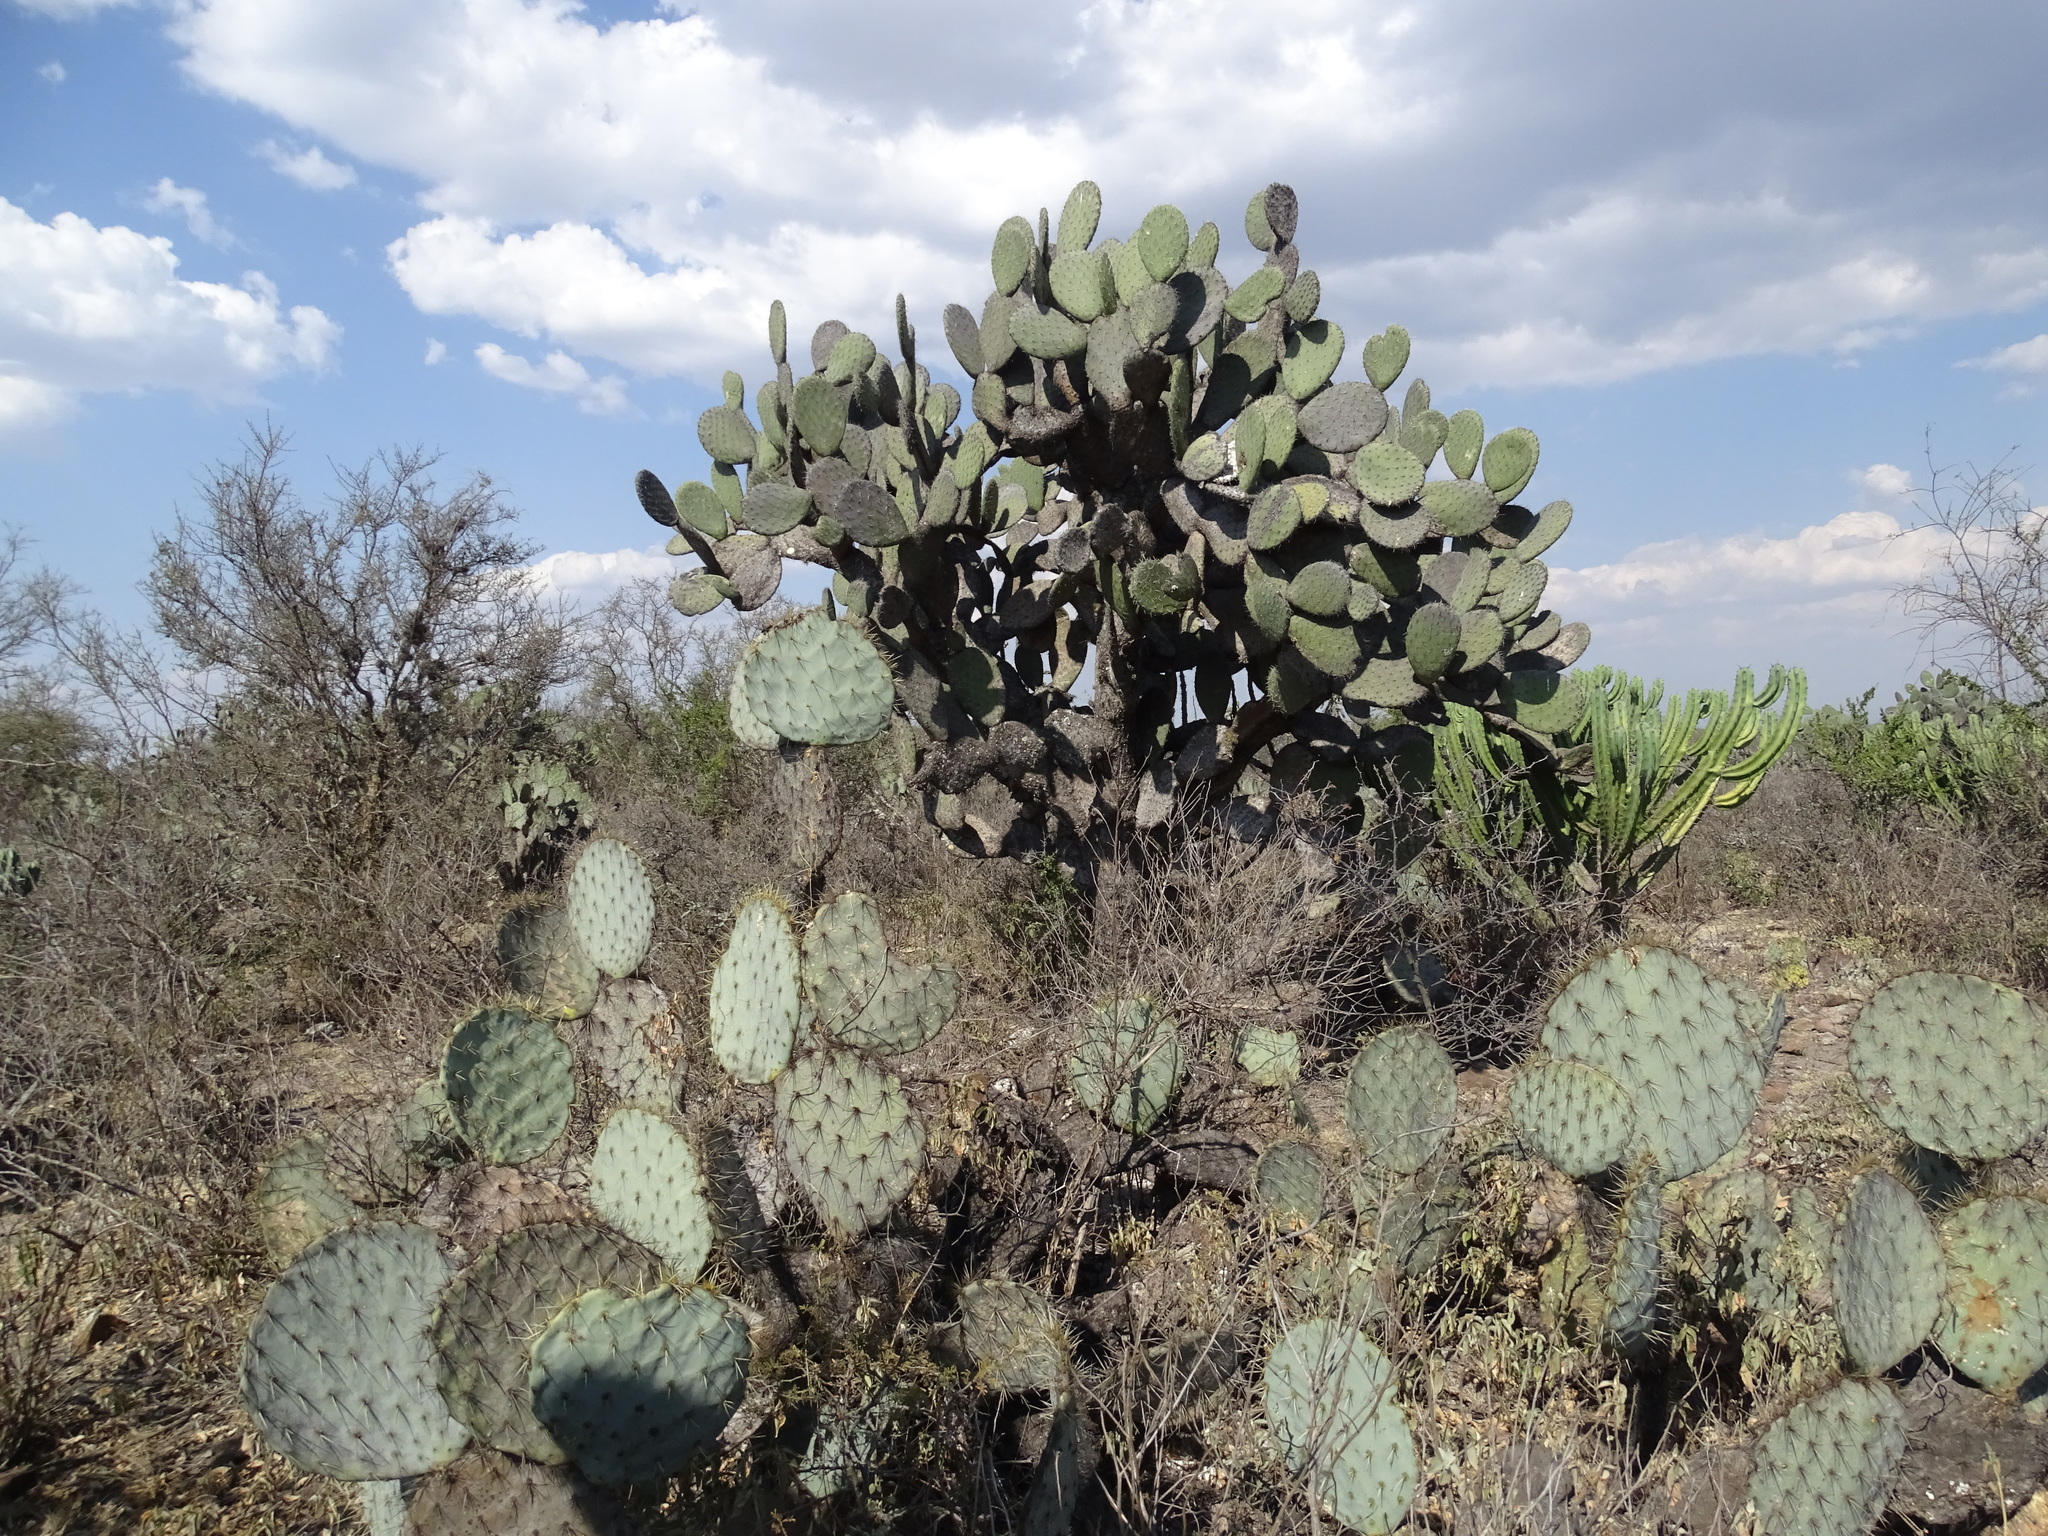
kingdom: Plantae
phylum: Tracheophyta
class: Magnoliopsida
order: Caryophyllales
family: Cactaceae
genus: Opuntia
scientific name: Opuntia robusta
